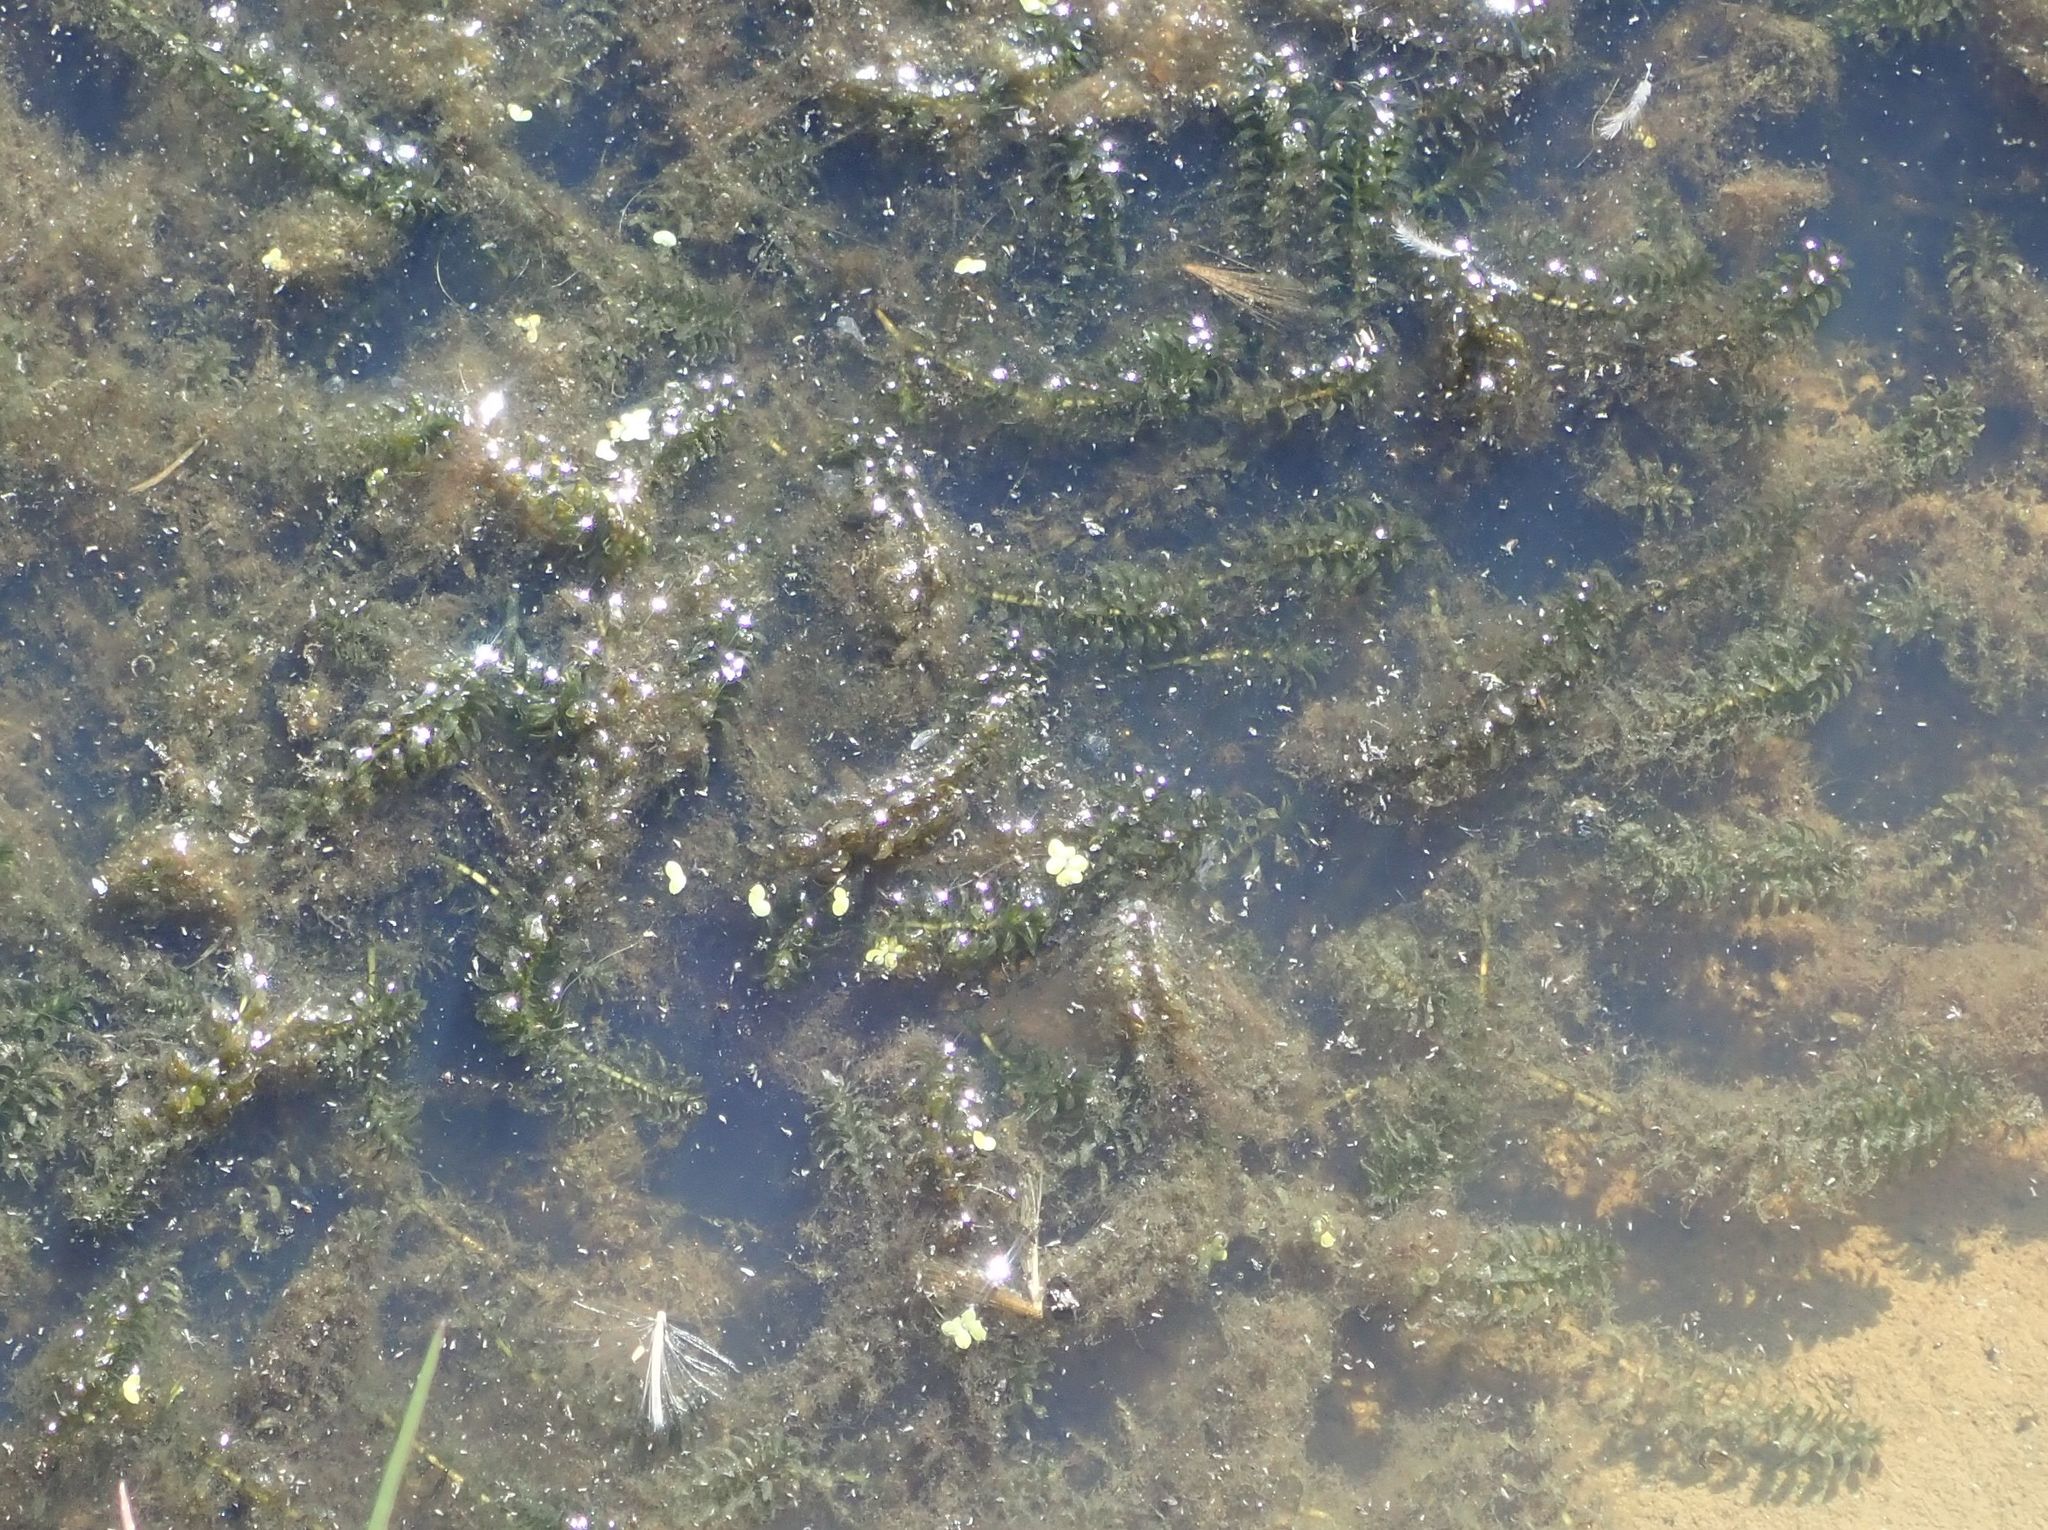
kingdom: Plantae
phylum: Tracheophyta
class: Liliopsida
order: Alismatales
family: Hydrocharitaceae
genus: Elodea
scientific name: Elodea canadensis
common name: Canadian waterweed
